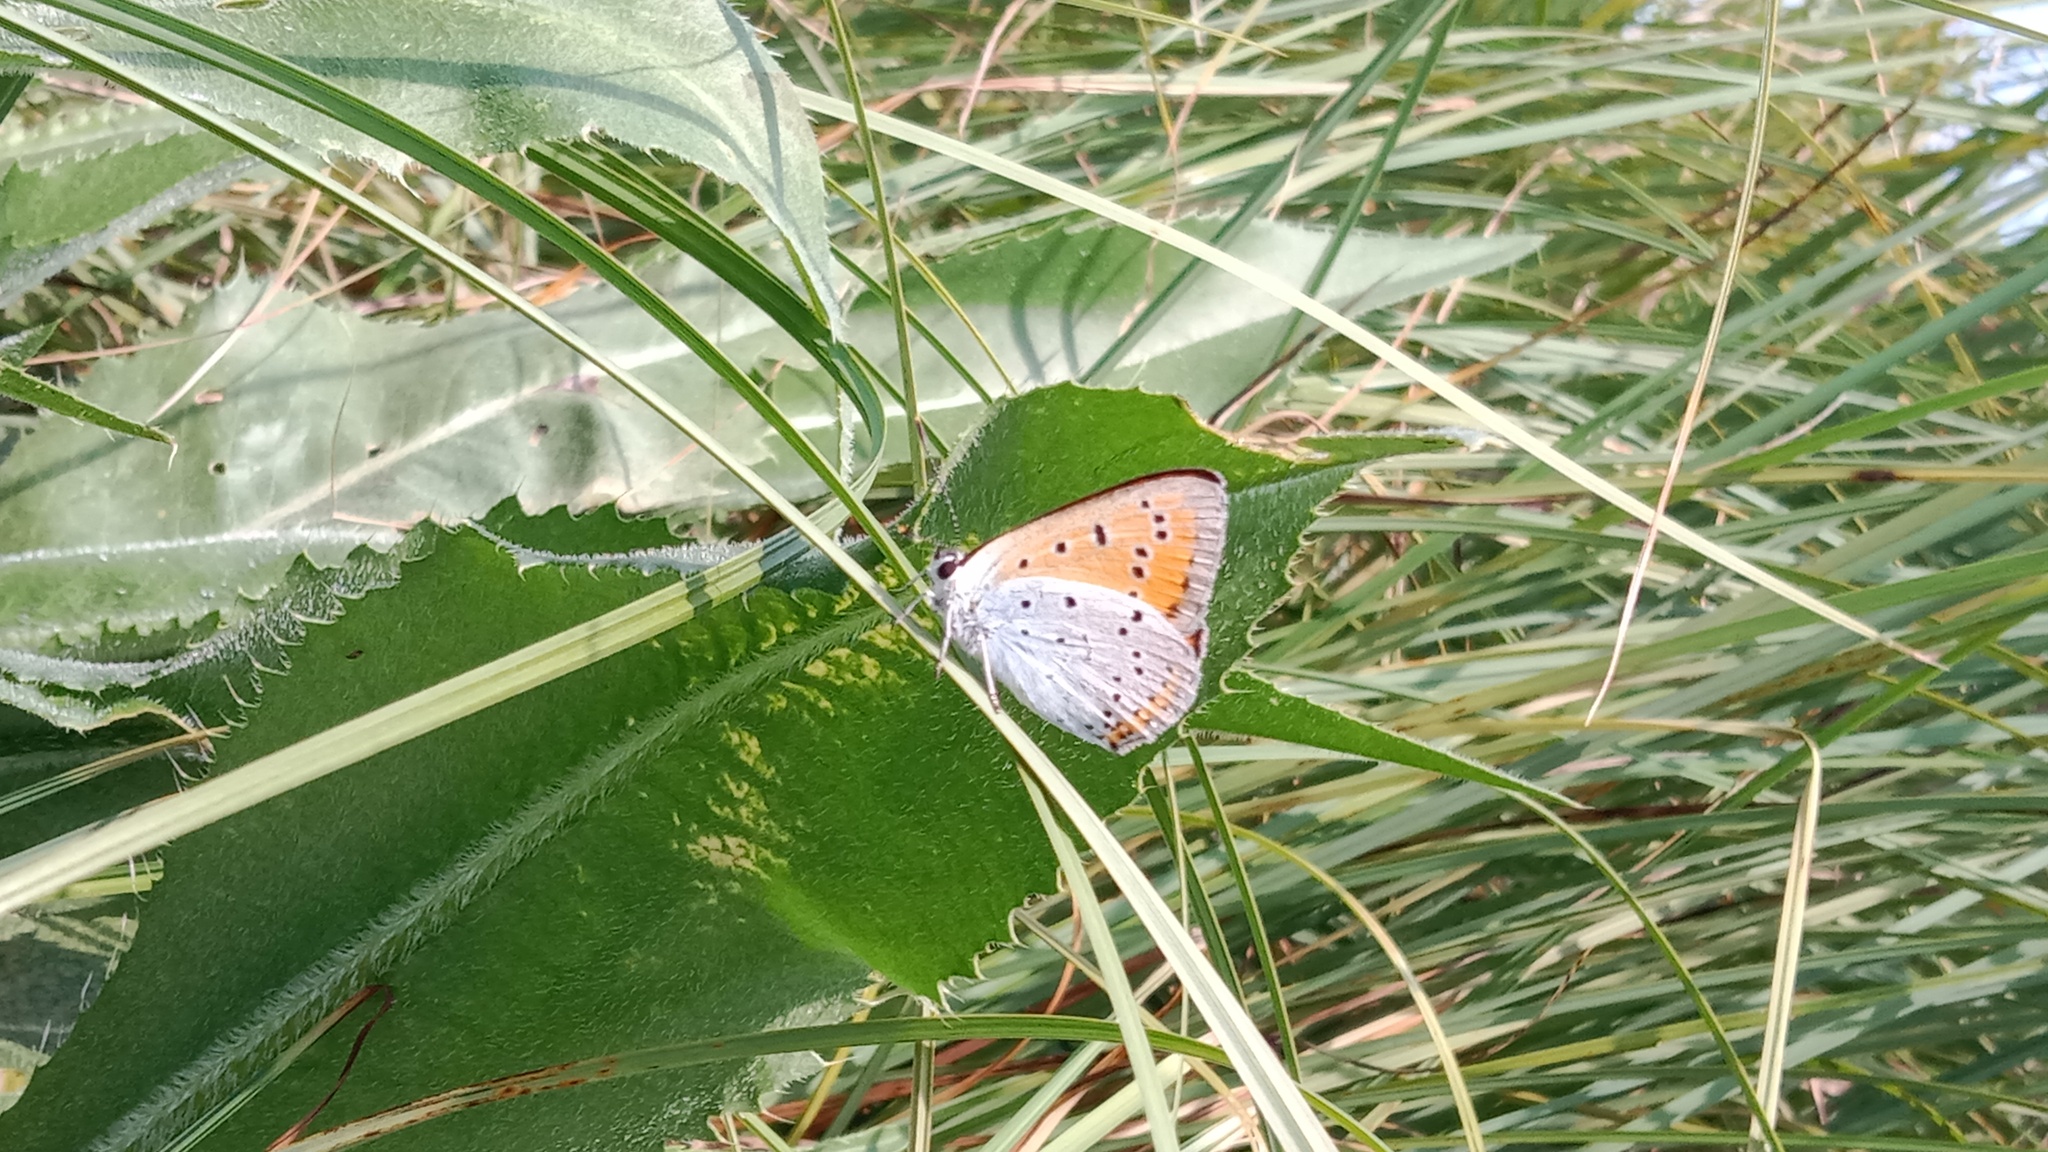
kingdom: Animalia
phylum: Arthropoda
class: Insecta
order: Lepidoptera
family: Lycaenidae
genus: Lycaena
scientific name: Lycaena dispar
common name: Large copper
